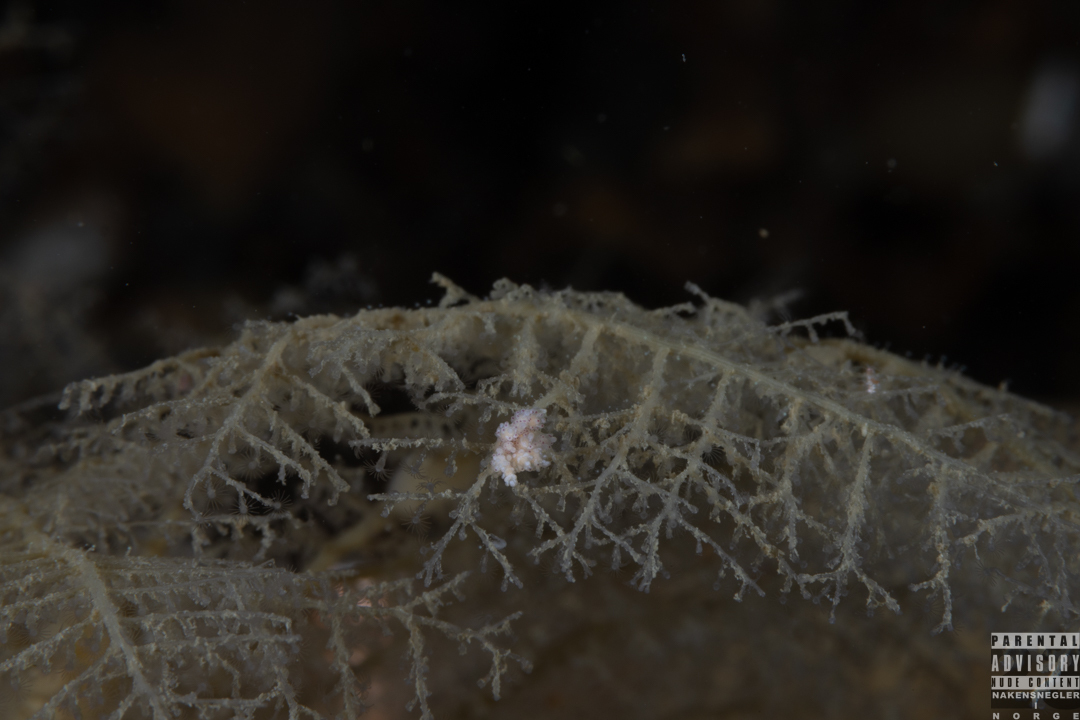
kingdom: Animalia
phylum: Mollusca
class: Gastropoda
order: Nudibranchia
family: Dotidae
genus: Doto
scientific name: Doto maculata
